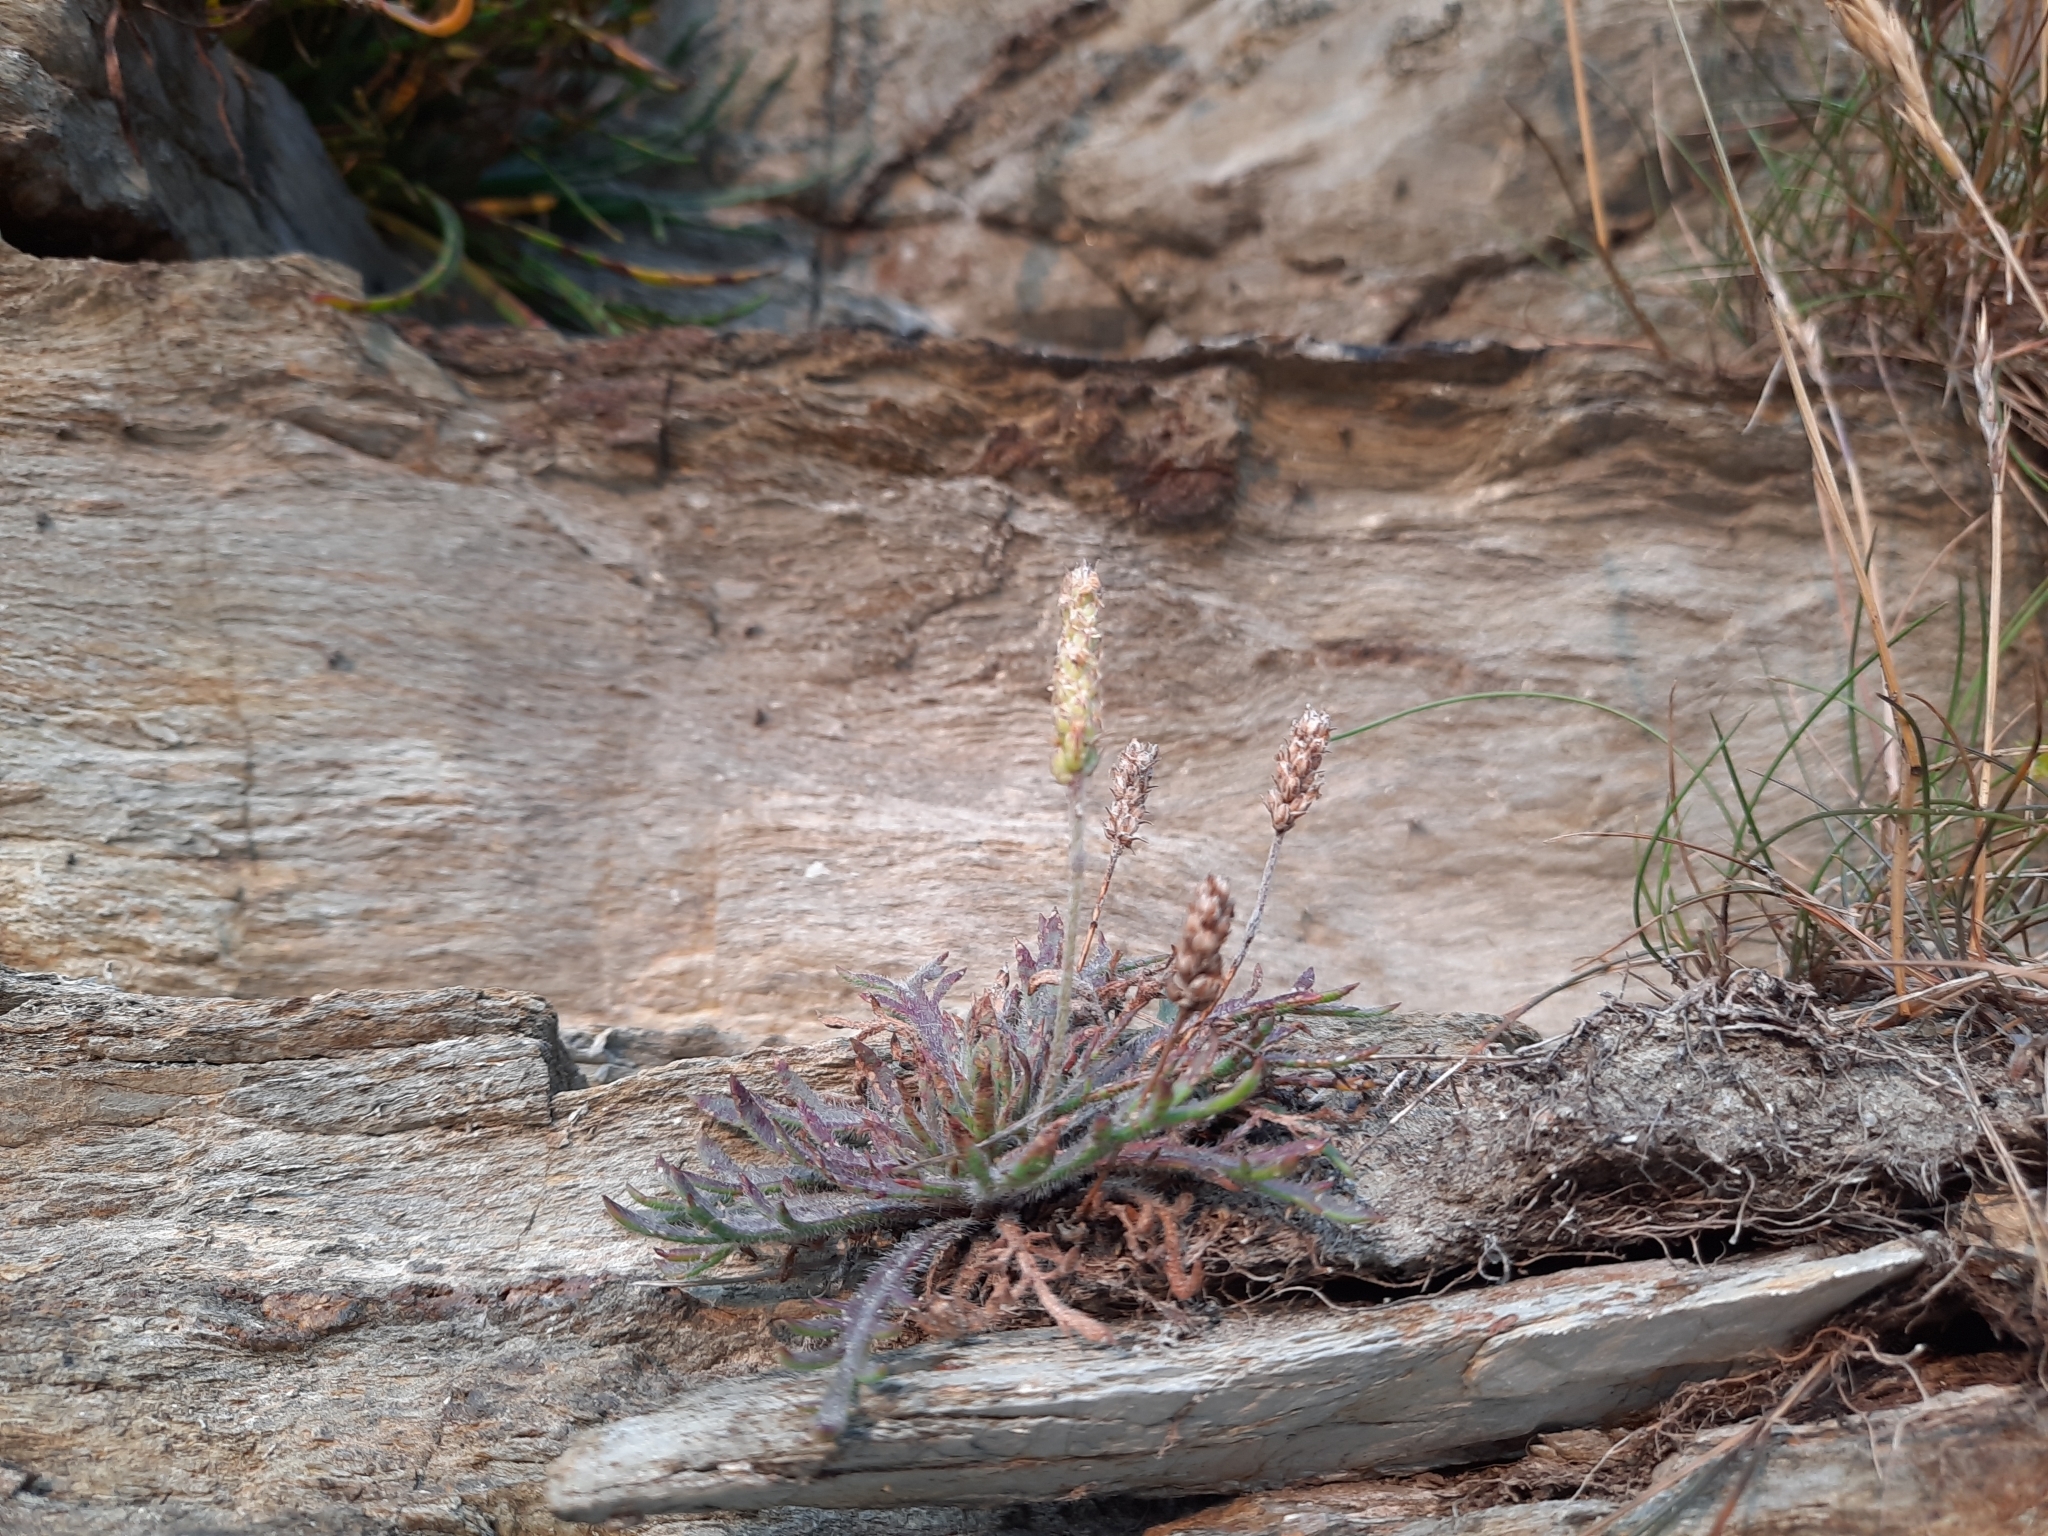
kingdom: Plantae
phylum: Tracheophyta
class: Magnoliopsida
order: Lamiales
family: Plantaginaceae
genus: Plantago
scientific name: Plantago coronopus
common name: Buck's-horn plantain
